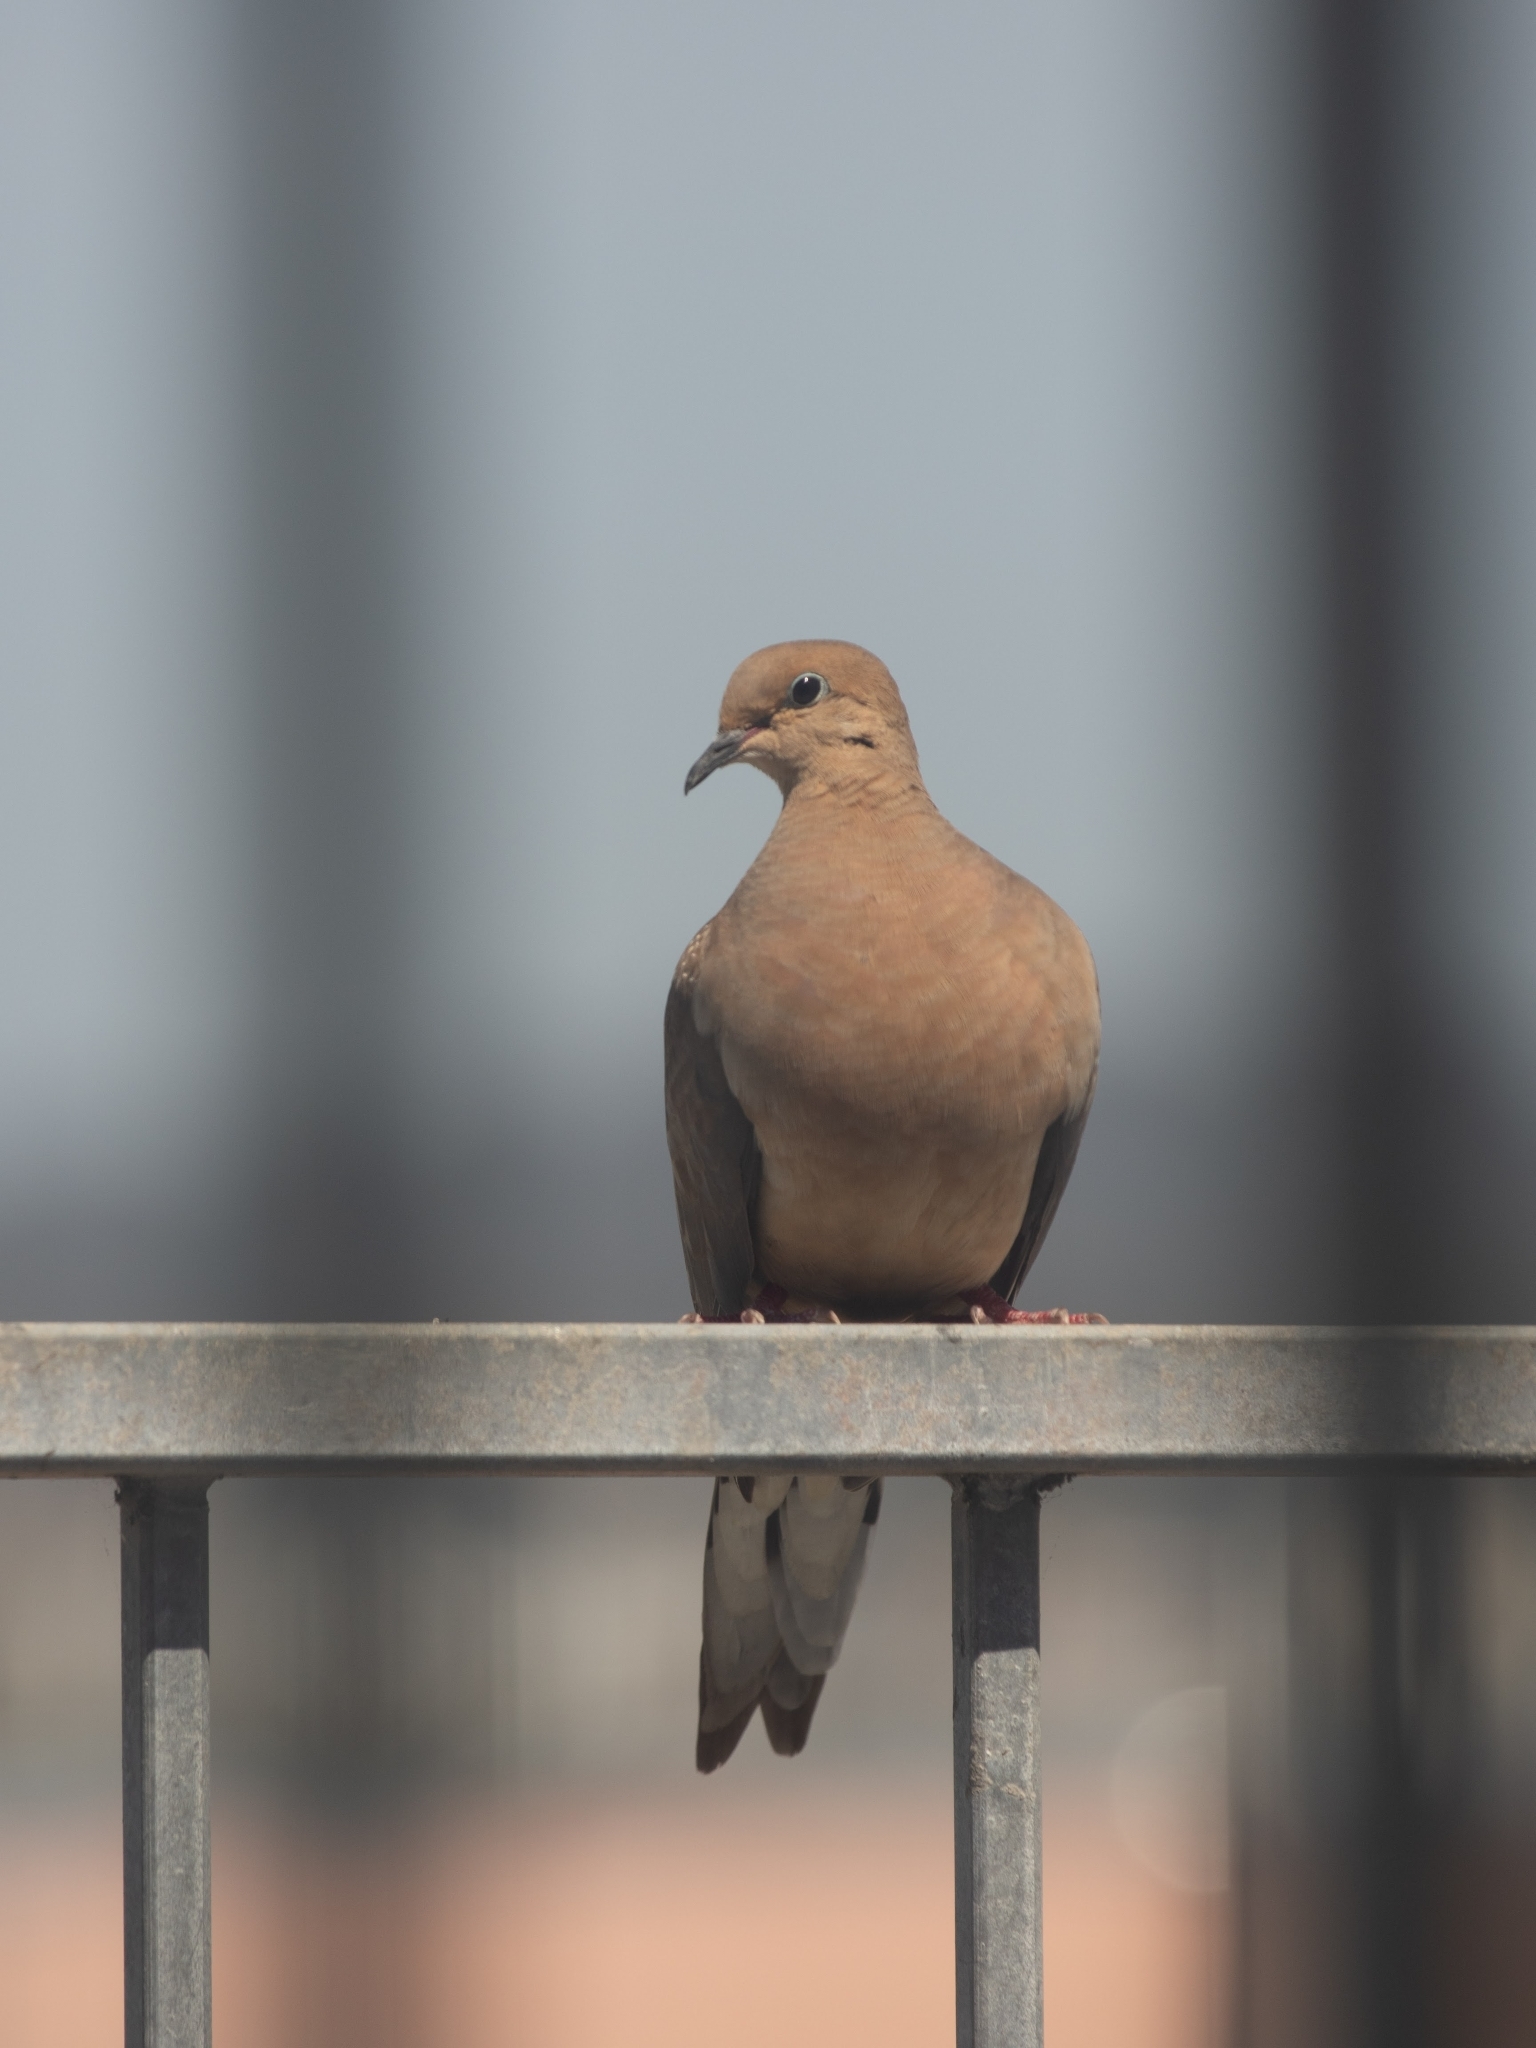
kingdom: Animalia
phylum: Chordata
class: Aves
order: Columbiformes
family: Columbidae
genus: Zenaida
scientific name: Zenaida macroura
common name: Mourning dove
